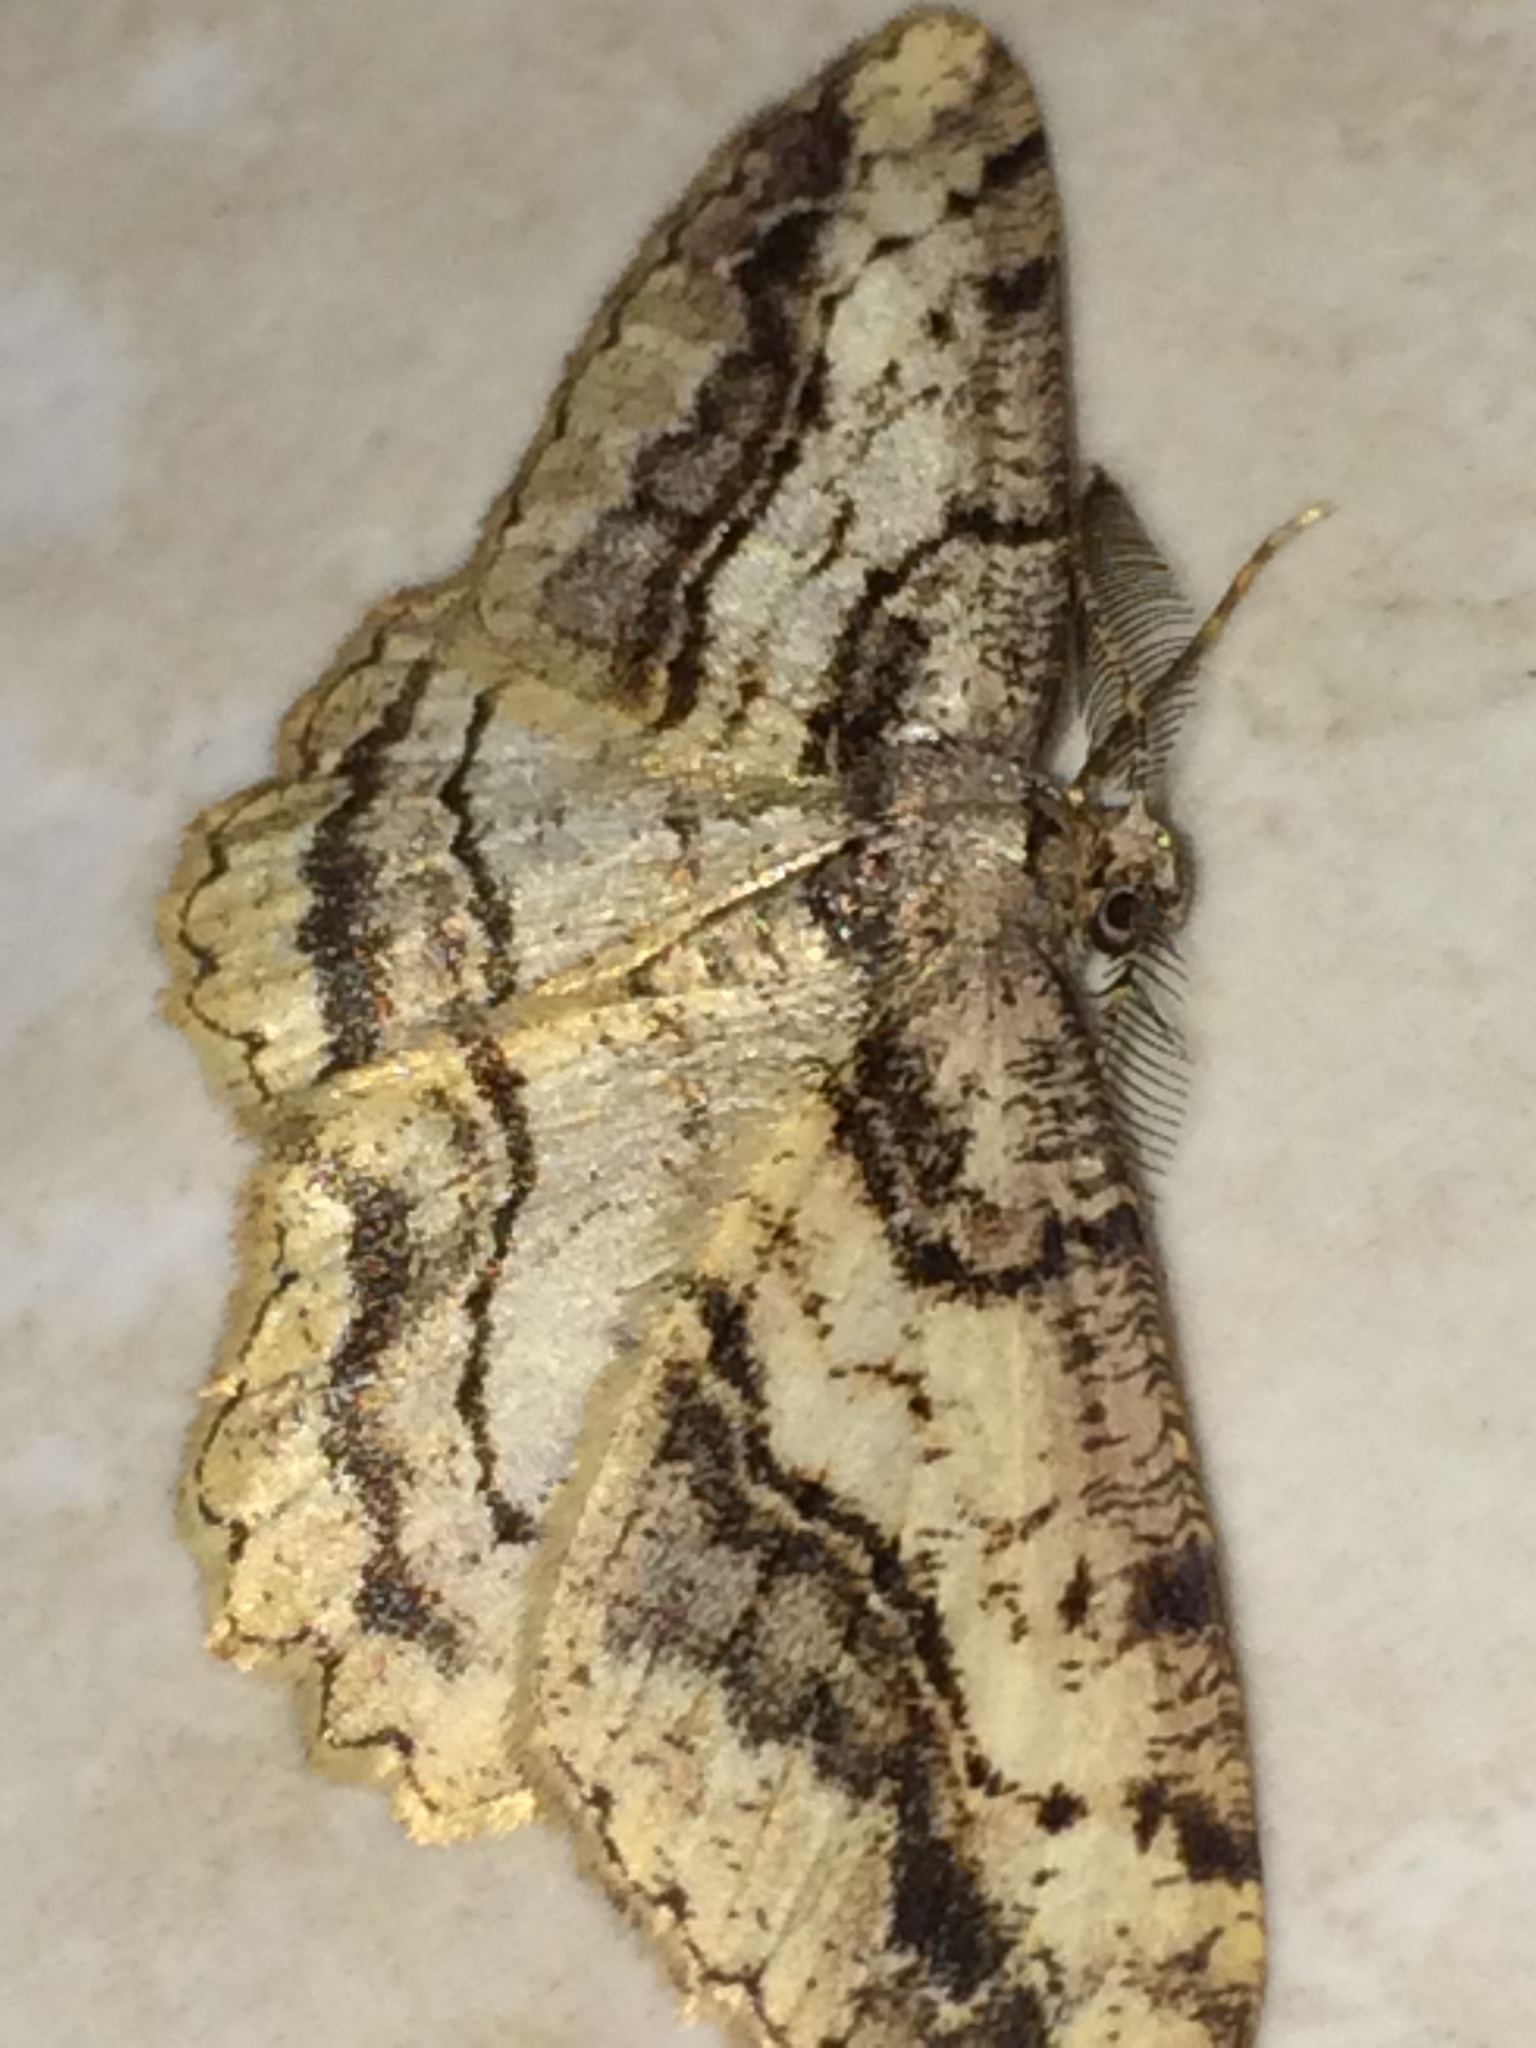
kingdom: Animalia
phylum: Arthropoda
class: Insecta
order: Lepidoptera
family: Geometridae
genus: Neoalcis
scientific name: Neoalcis californiaria
